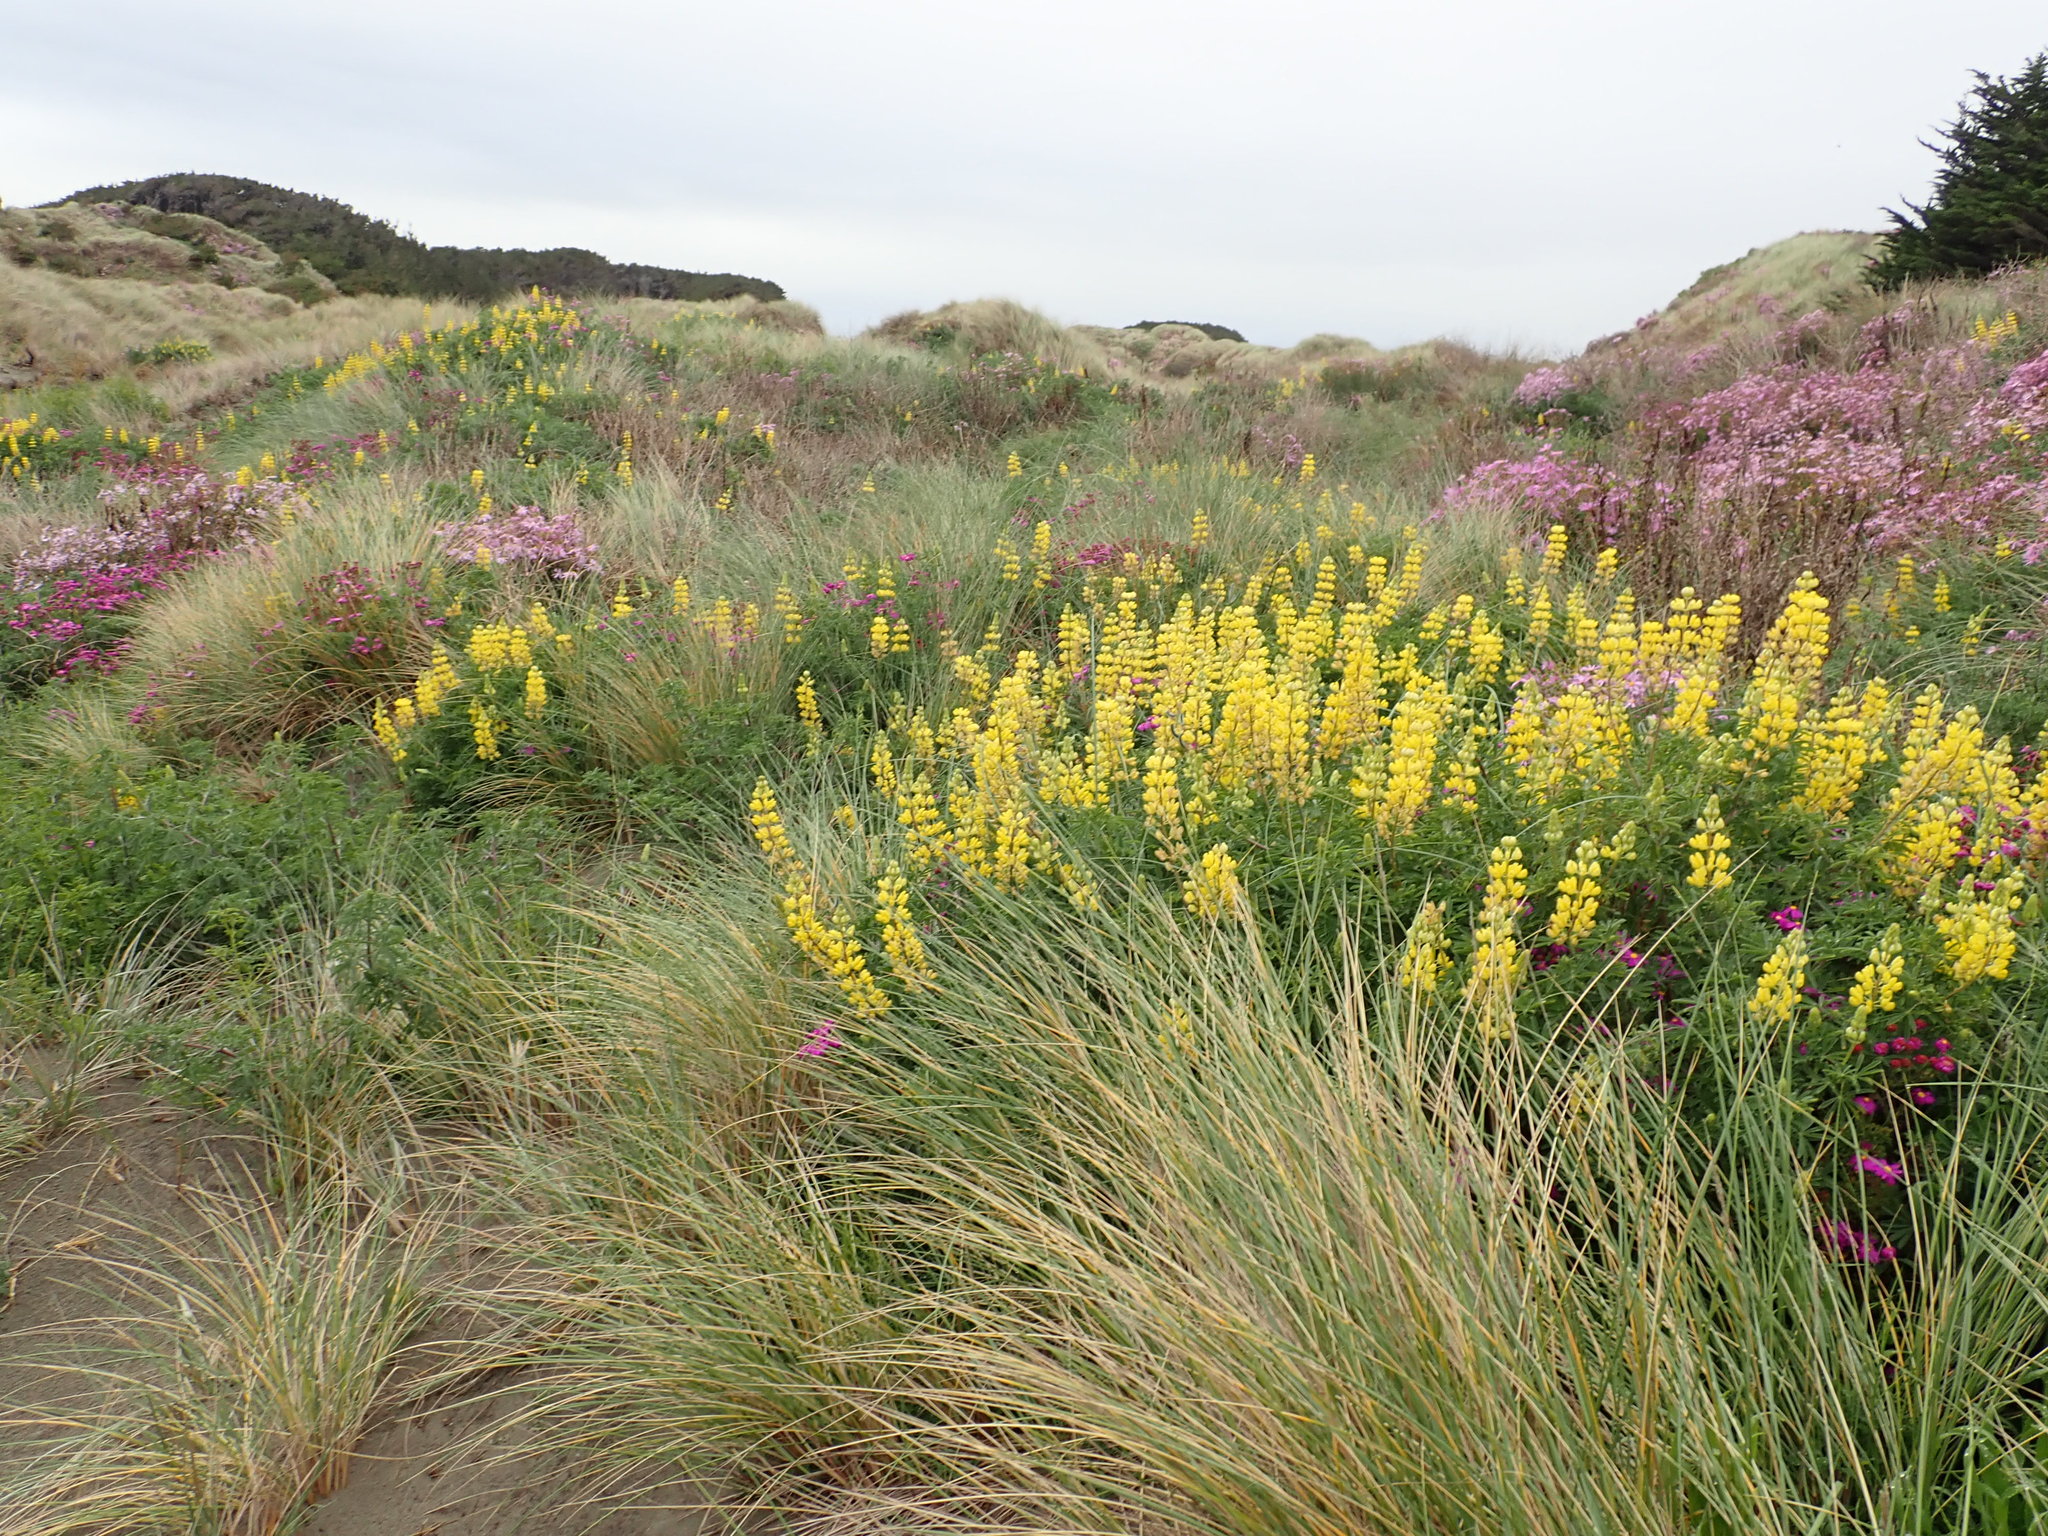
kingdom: Plantae
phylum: Tracheophyta
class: Magnoliopsida
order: Fabales
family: Fabaceae
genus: Lupinus
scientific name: Lupinus arboreus
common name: Yellow bush lupine
